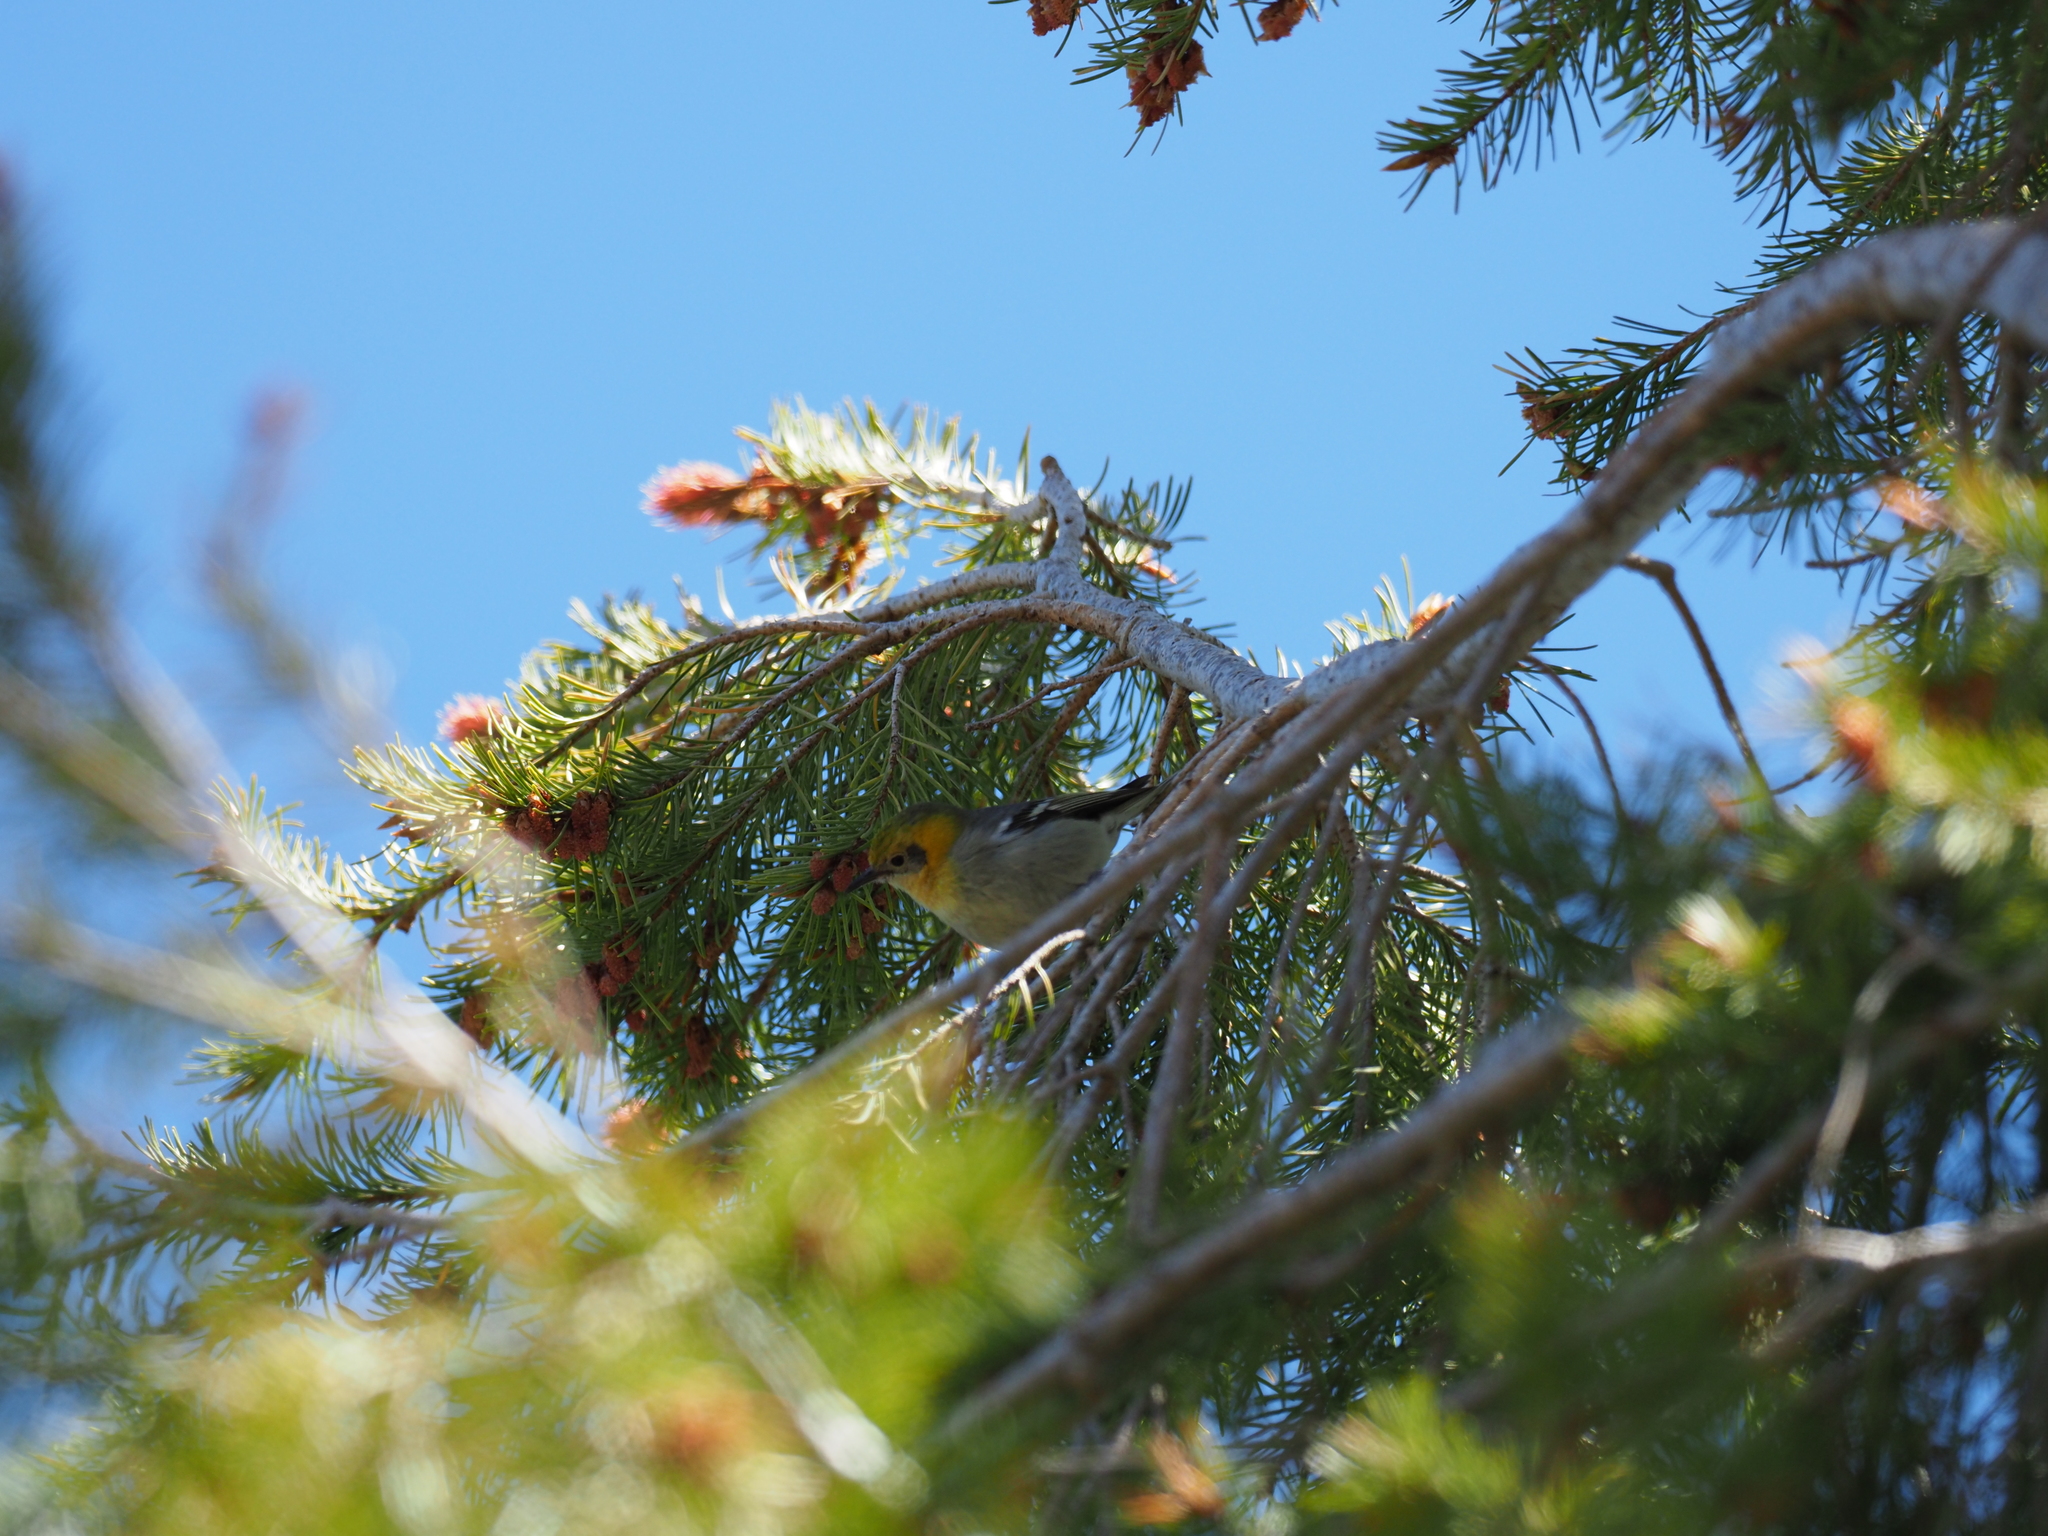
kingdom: Animalia
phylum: Chordata
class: Aves
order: Passeriformes
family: Peucedramidae
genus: Peucedramus
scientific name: Peucedramus taeniatus
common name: Olive warbler
